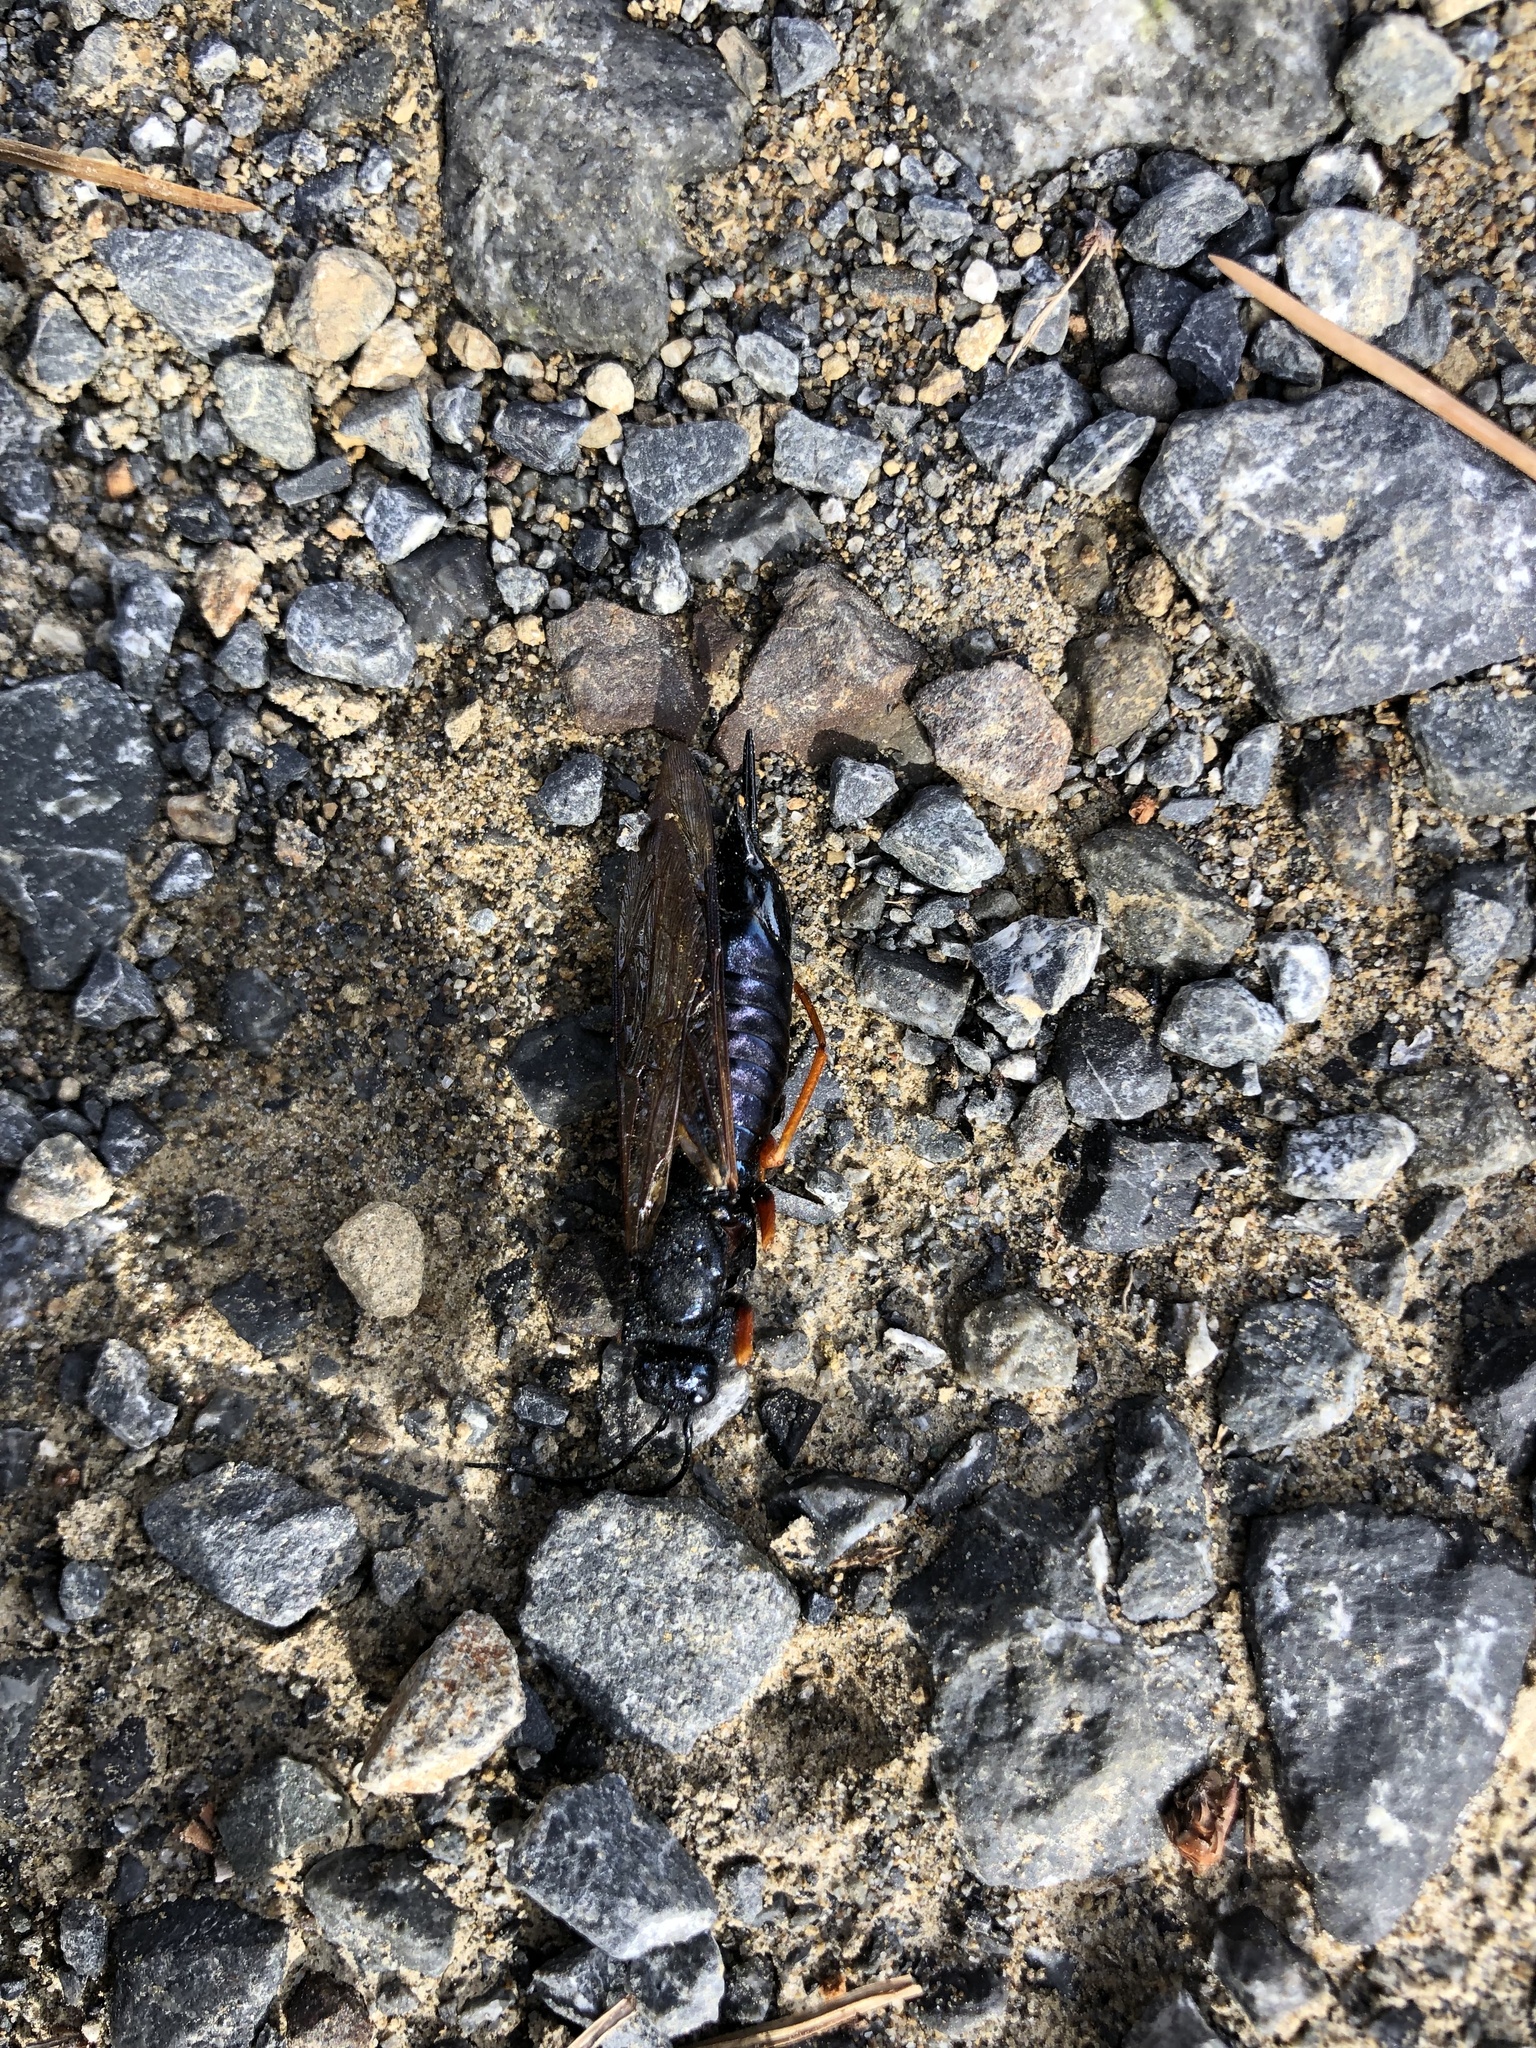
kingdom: Animalia
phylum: Arthropoda
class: Insecta
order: Hymenoptera
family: Siricidae
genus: Sirex
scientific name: Sirex noctilio
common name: Woodwasp
